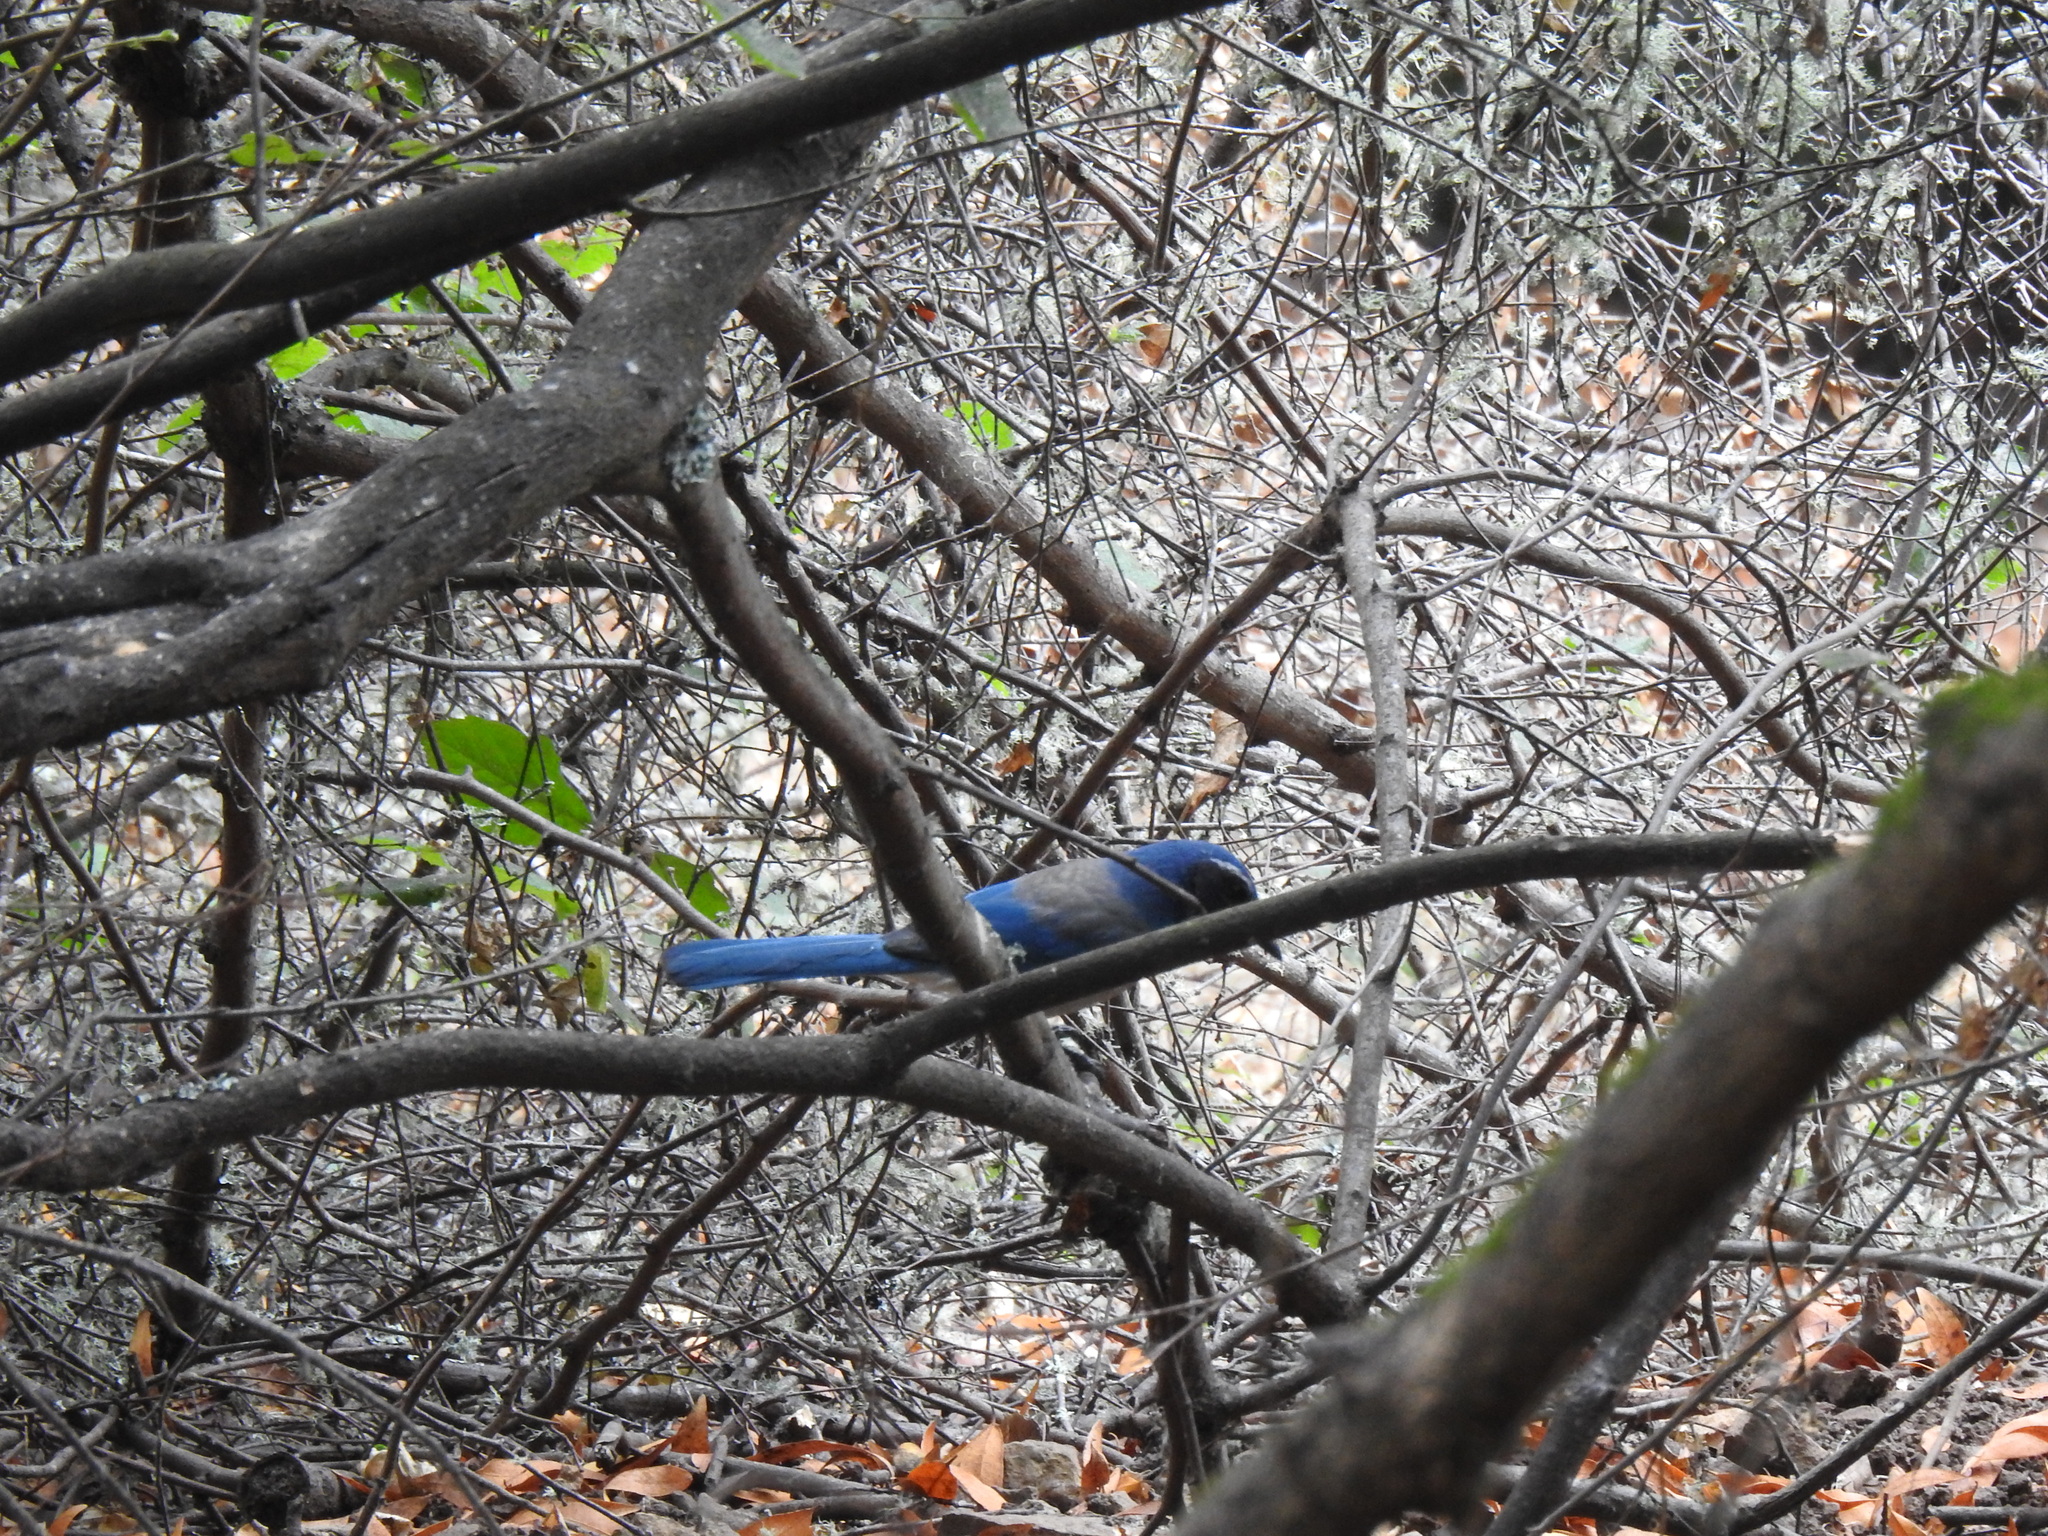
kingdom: Animalia
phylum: Chordata
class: Aves
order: Passeriformes
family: Corvidae
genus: Aphelocoma
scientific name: Aphelocoma californica
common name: California scrub-jay
